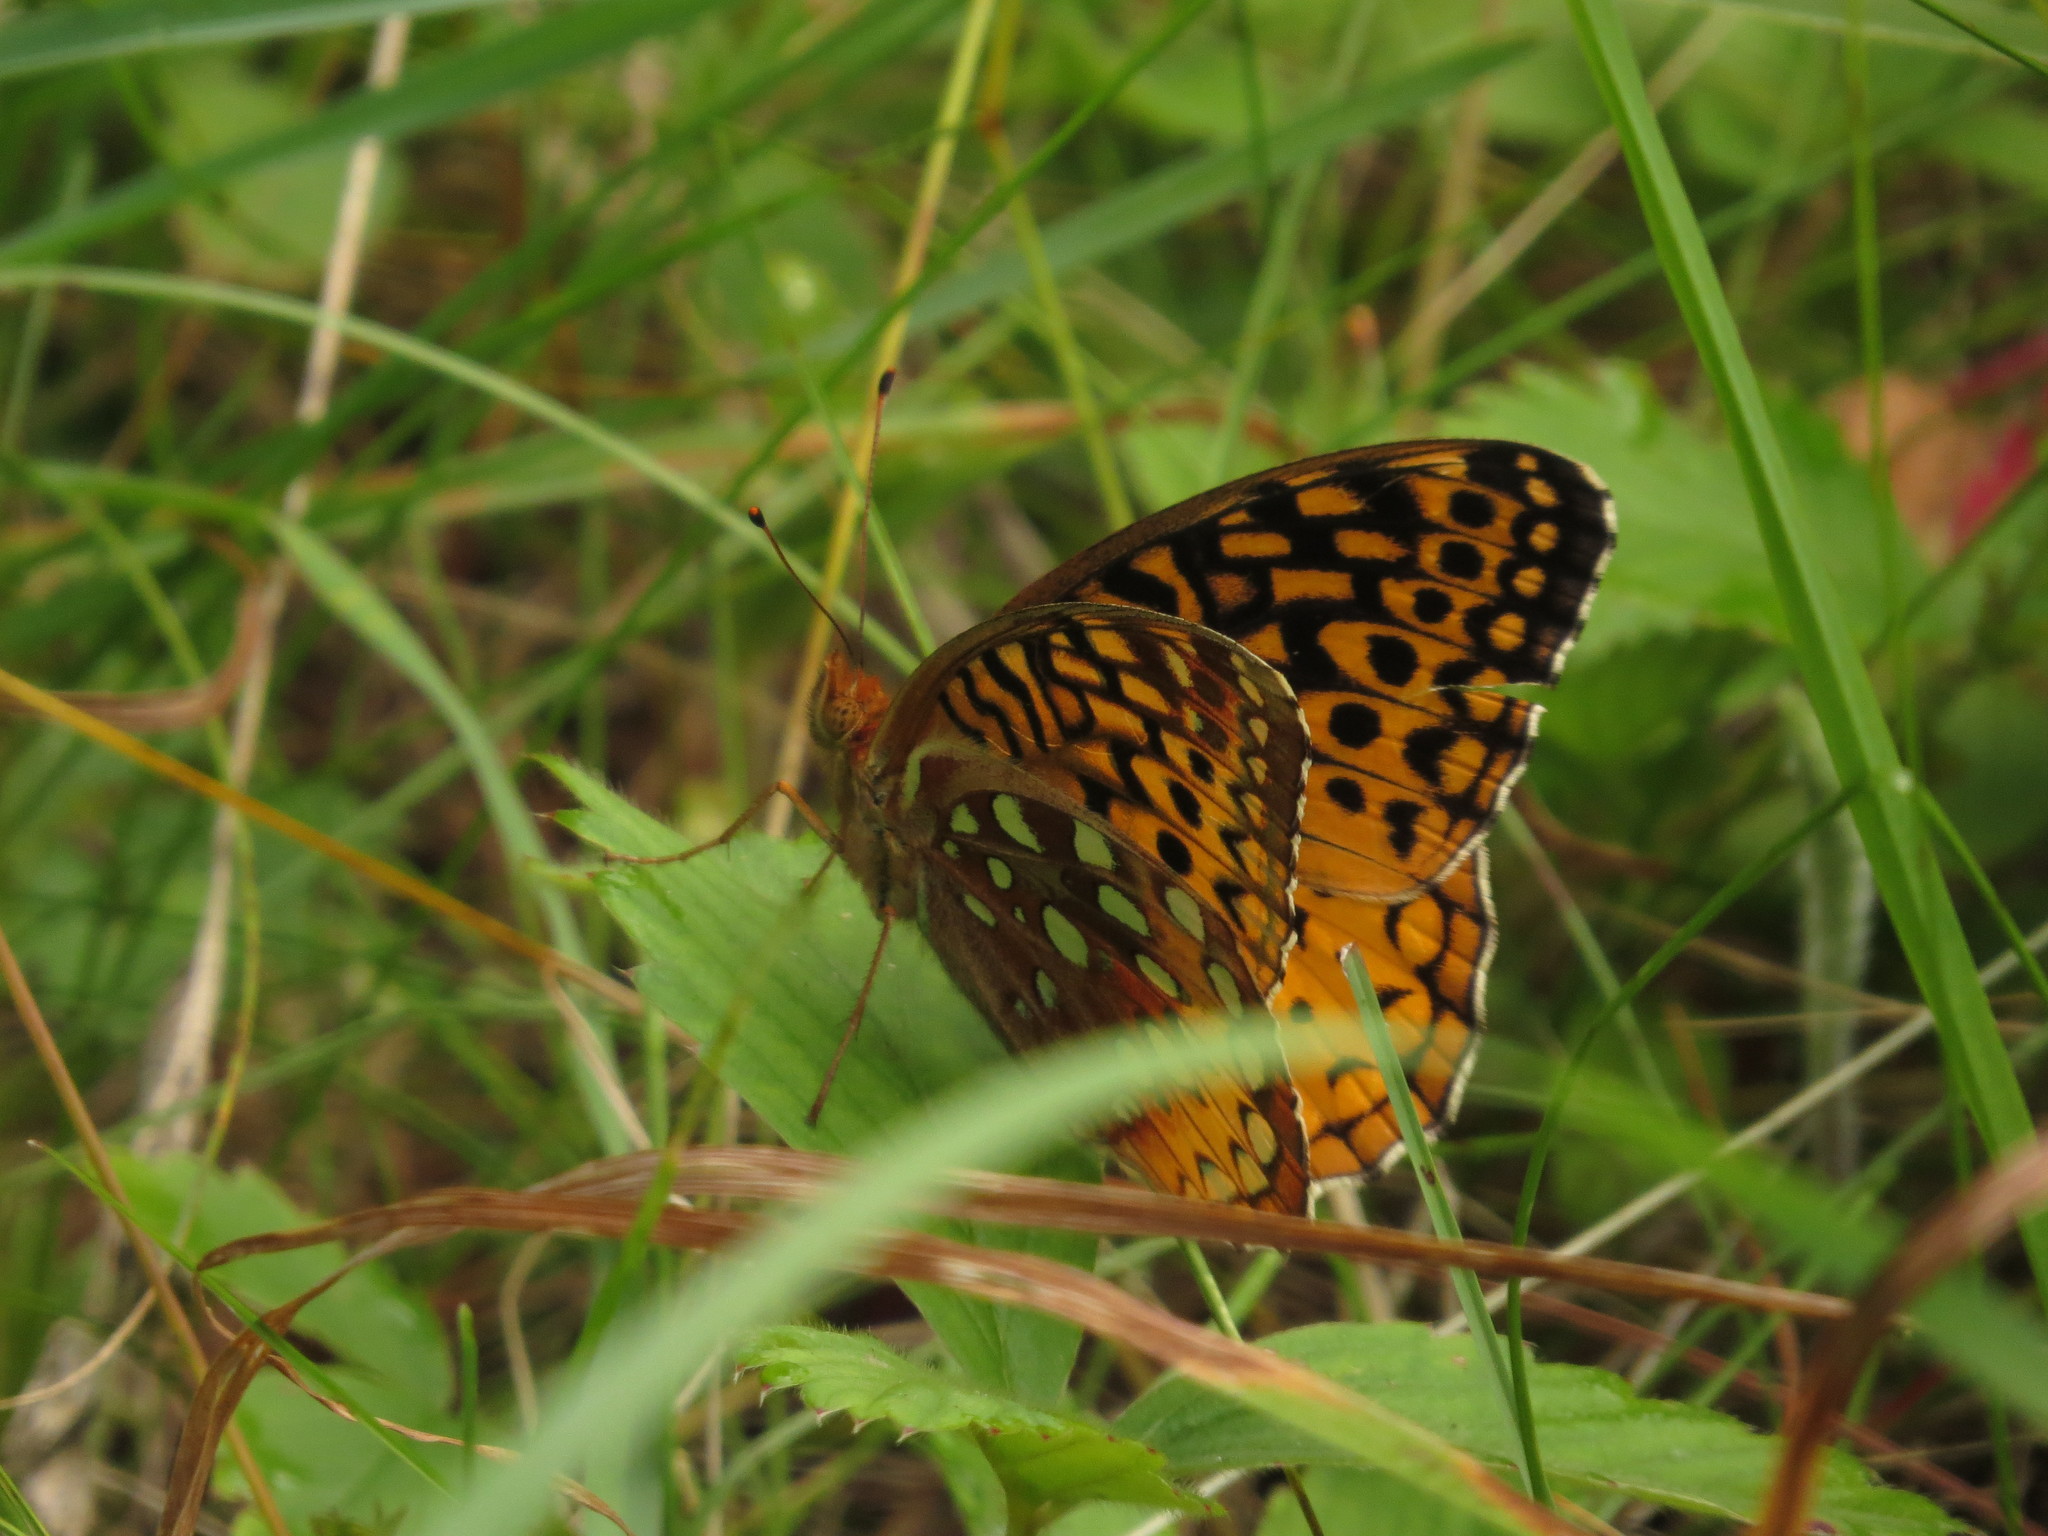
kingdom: Animalia
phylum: Arthropoda
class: Insecta
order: Lepidoptera
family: Nymphalidae
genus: Speyeria
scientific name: Speyeria cybele
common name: Great spangled fritillary
